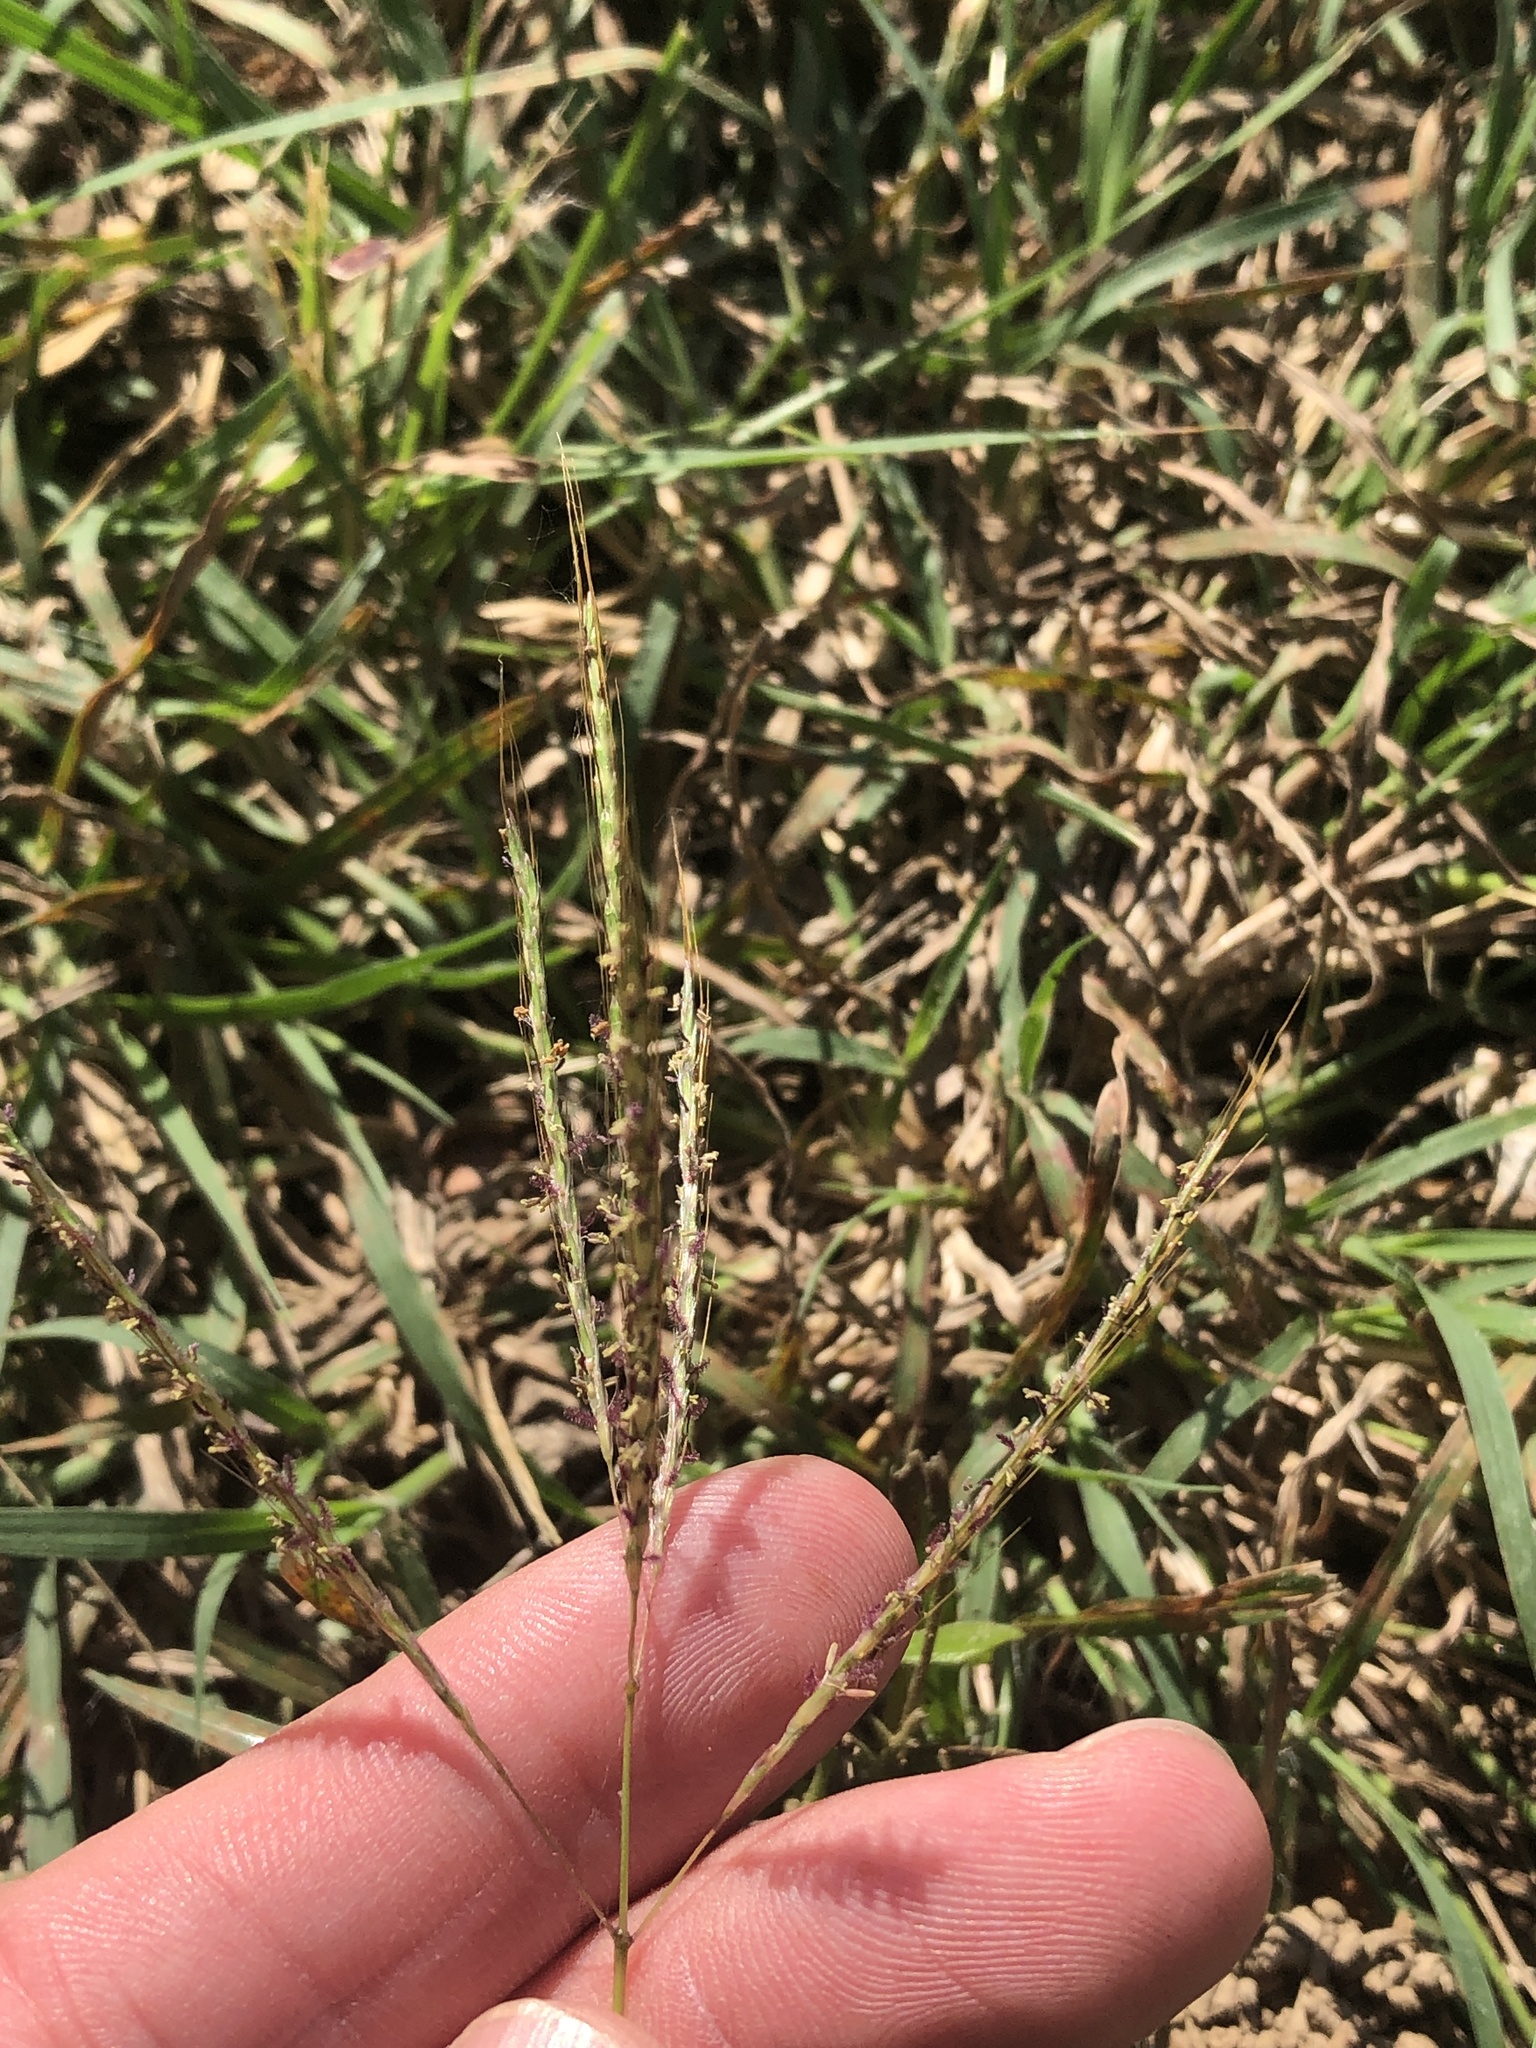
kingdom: Plantae
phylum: Tracheophyta
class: Liliopsida
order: Poales
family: Poaceae
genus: Bothriochloa
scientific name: Bothriochloa ischaemum
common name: Yellow bluestem
